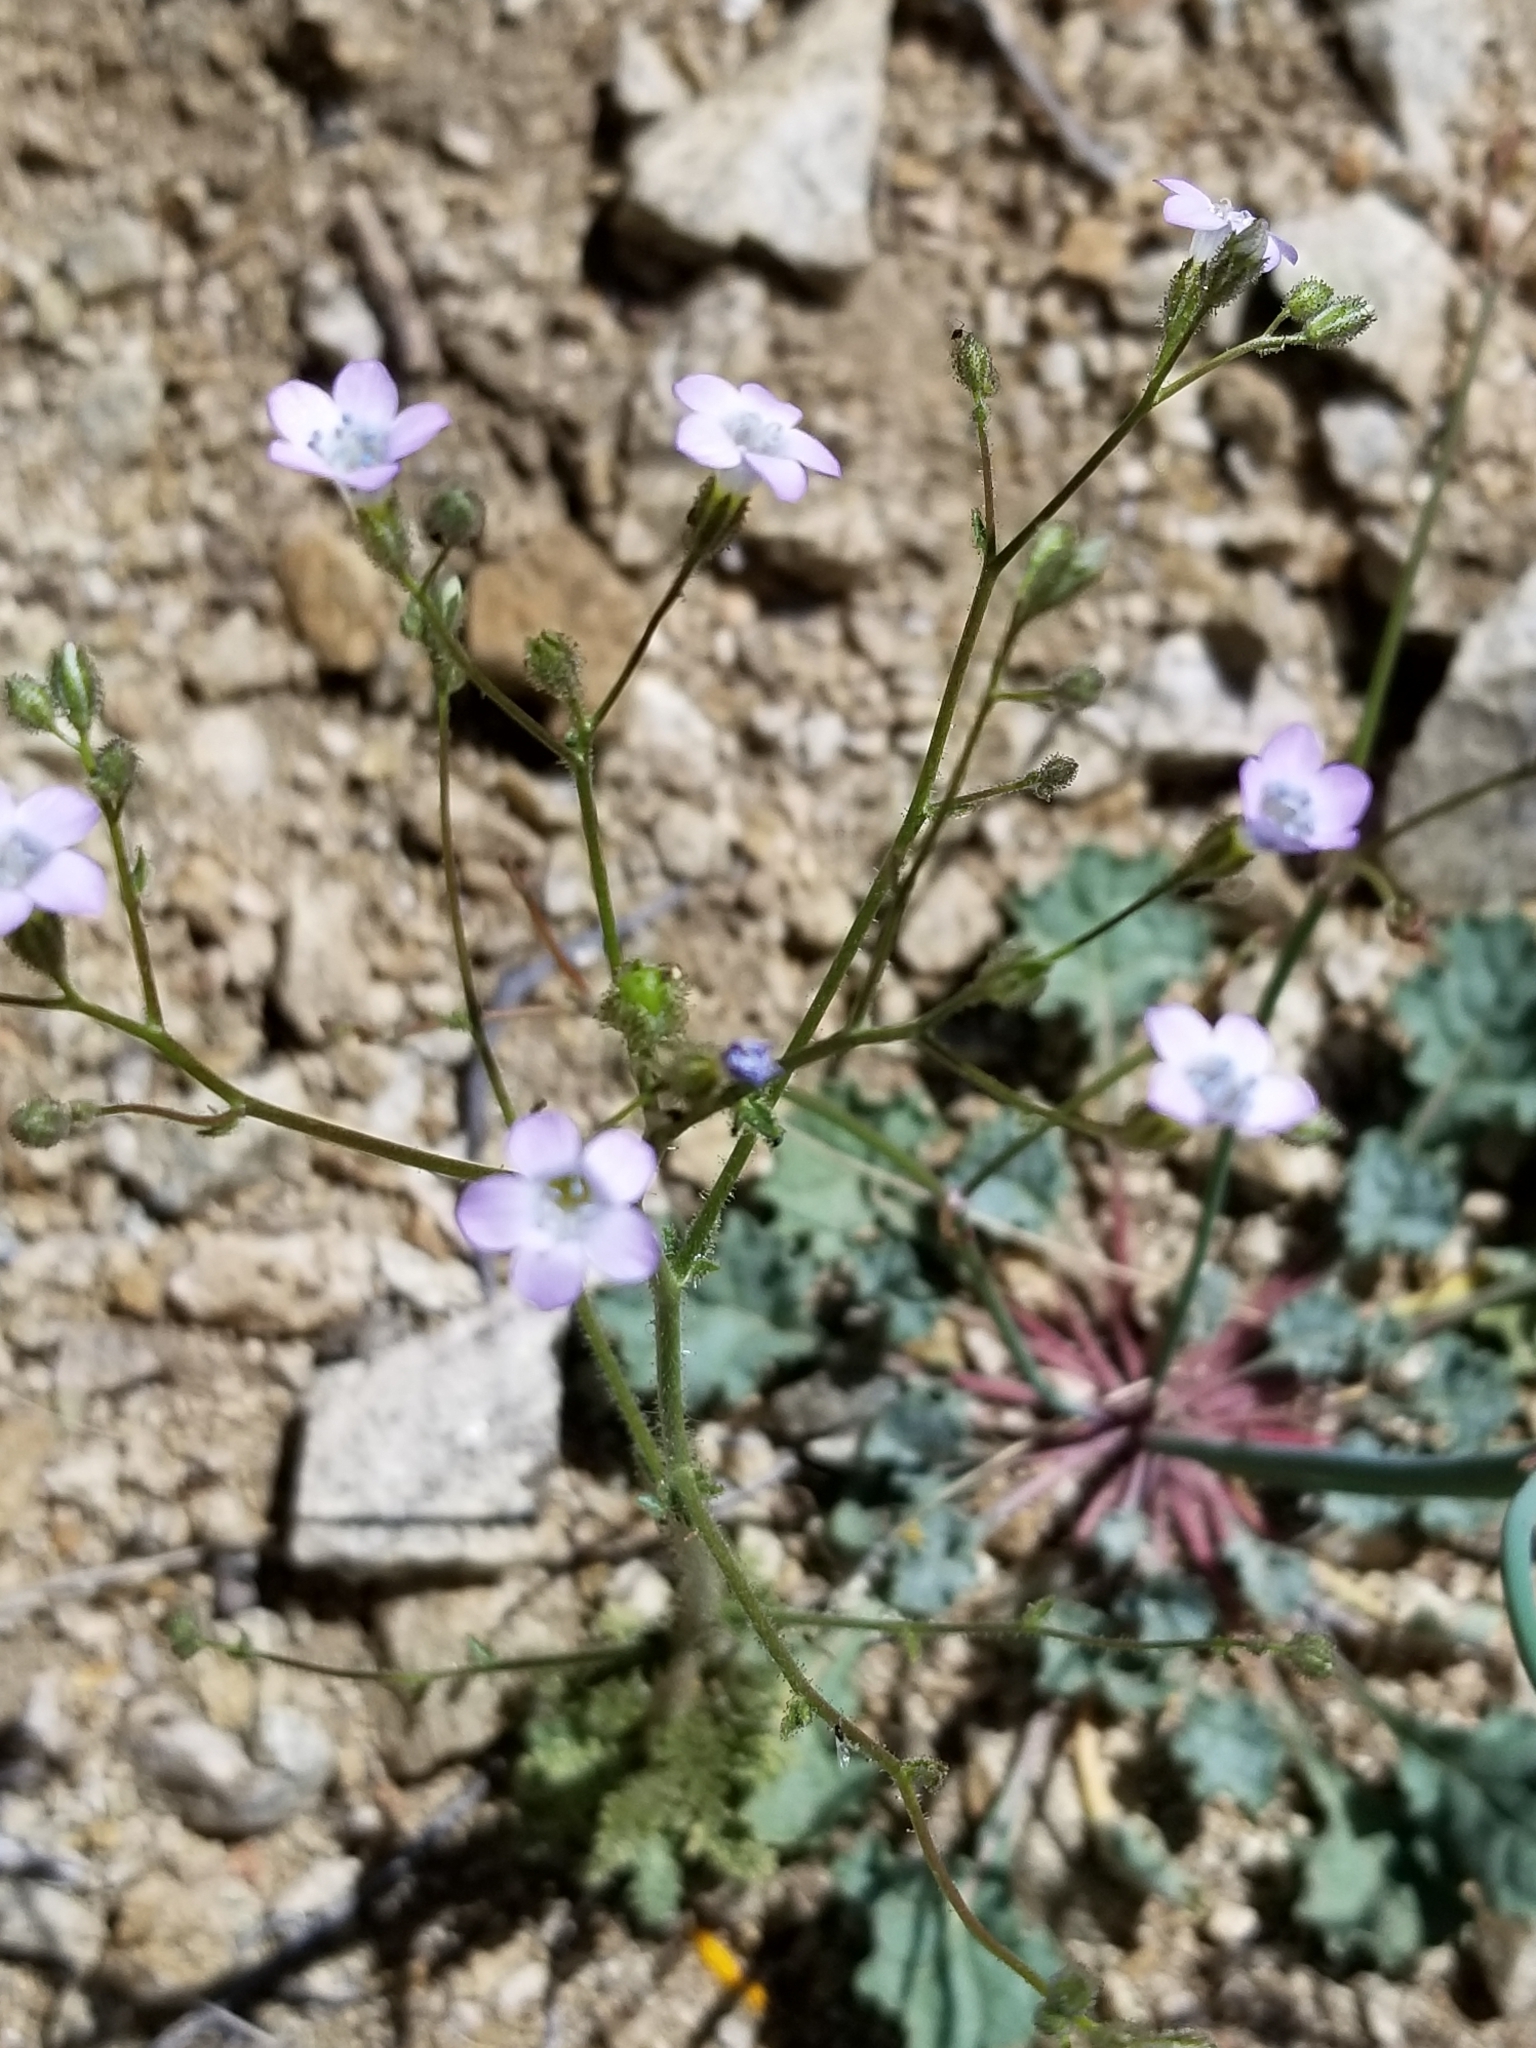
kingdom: Plantae
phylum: Tracheophyta
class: Magnoliopsida
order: Ericales
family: Polemoniaceae
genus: Gilia
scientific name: Gilia stellata
